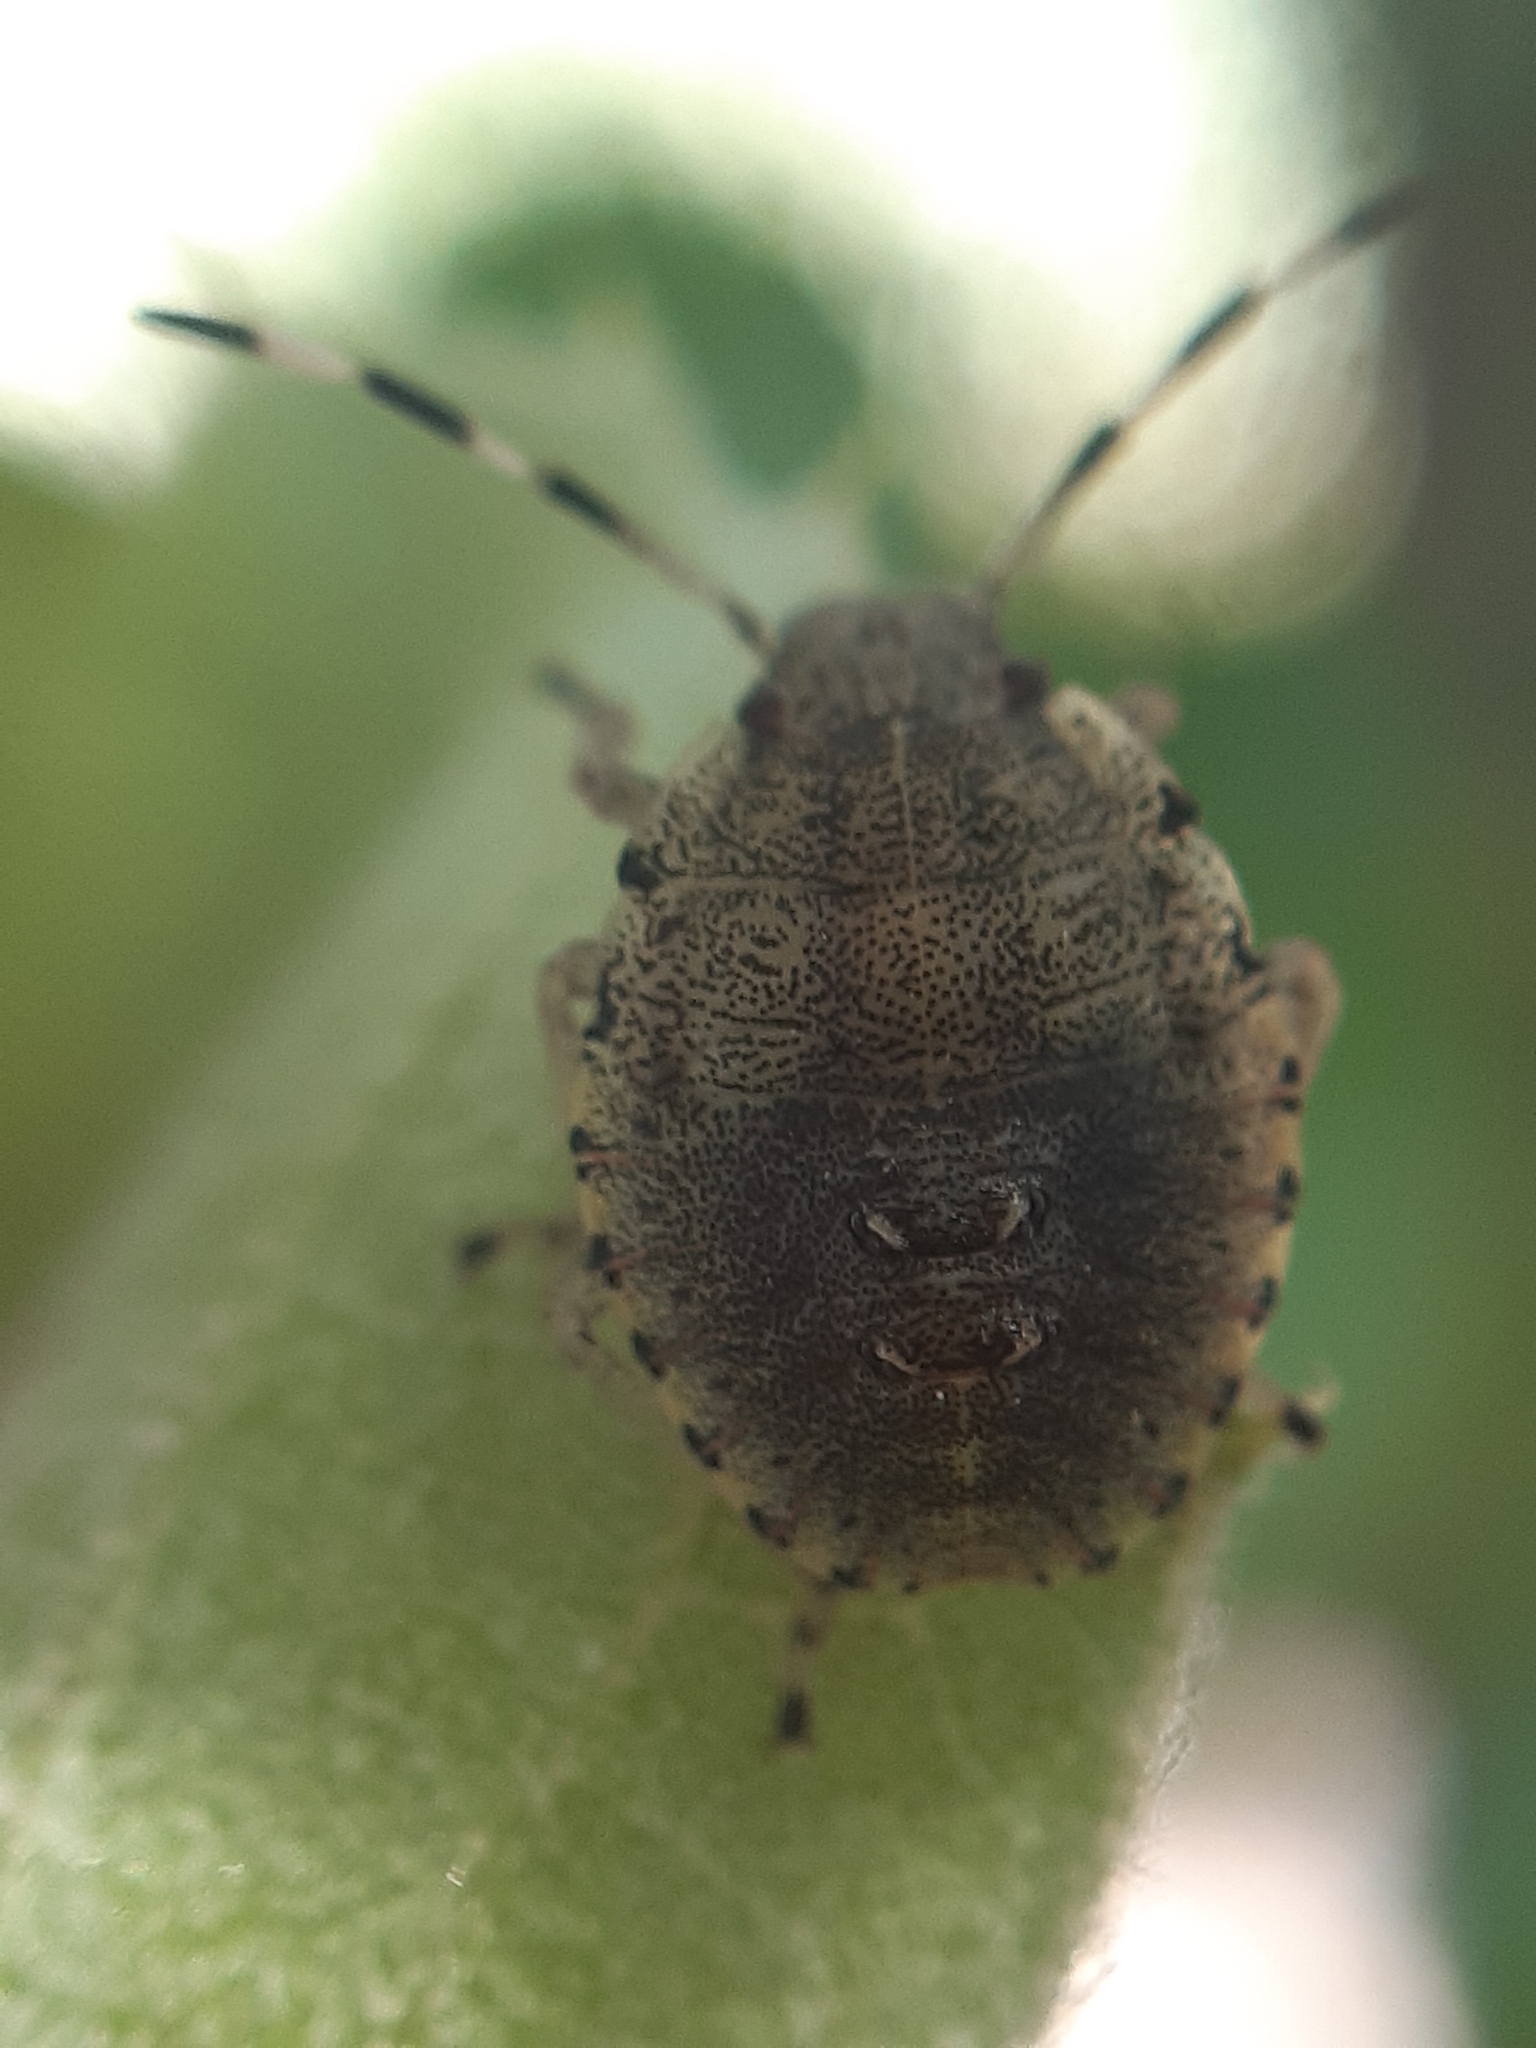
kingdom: Animalia
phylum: Arthropoda
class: Insecta
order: Hemiptera
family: Pentatomidae
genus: Rhaphigaster
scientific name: Rhaphigaster nebulosa
